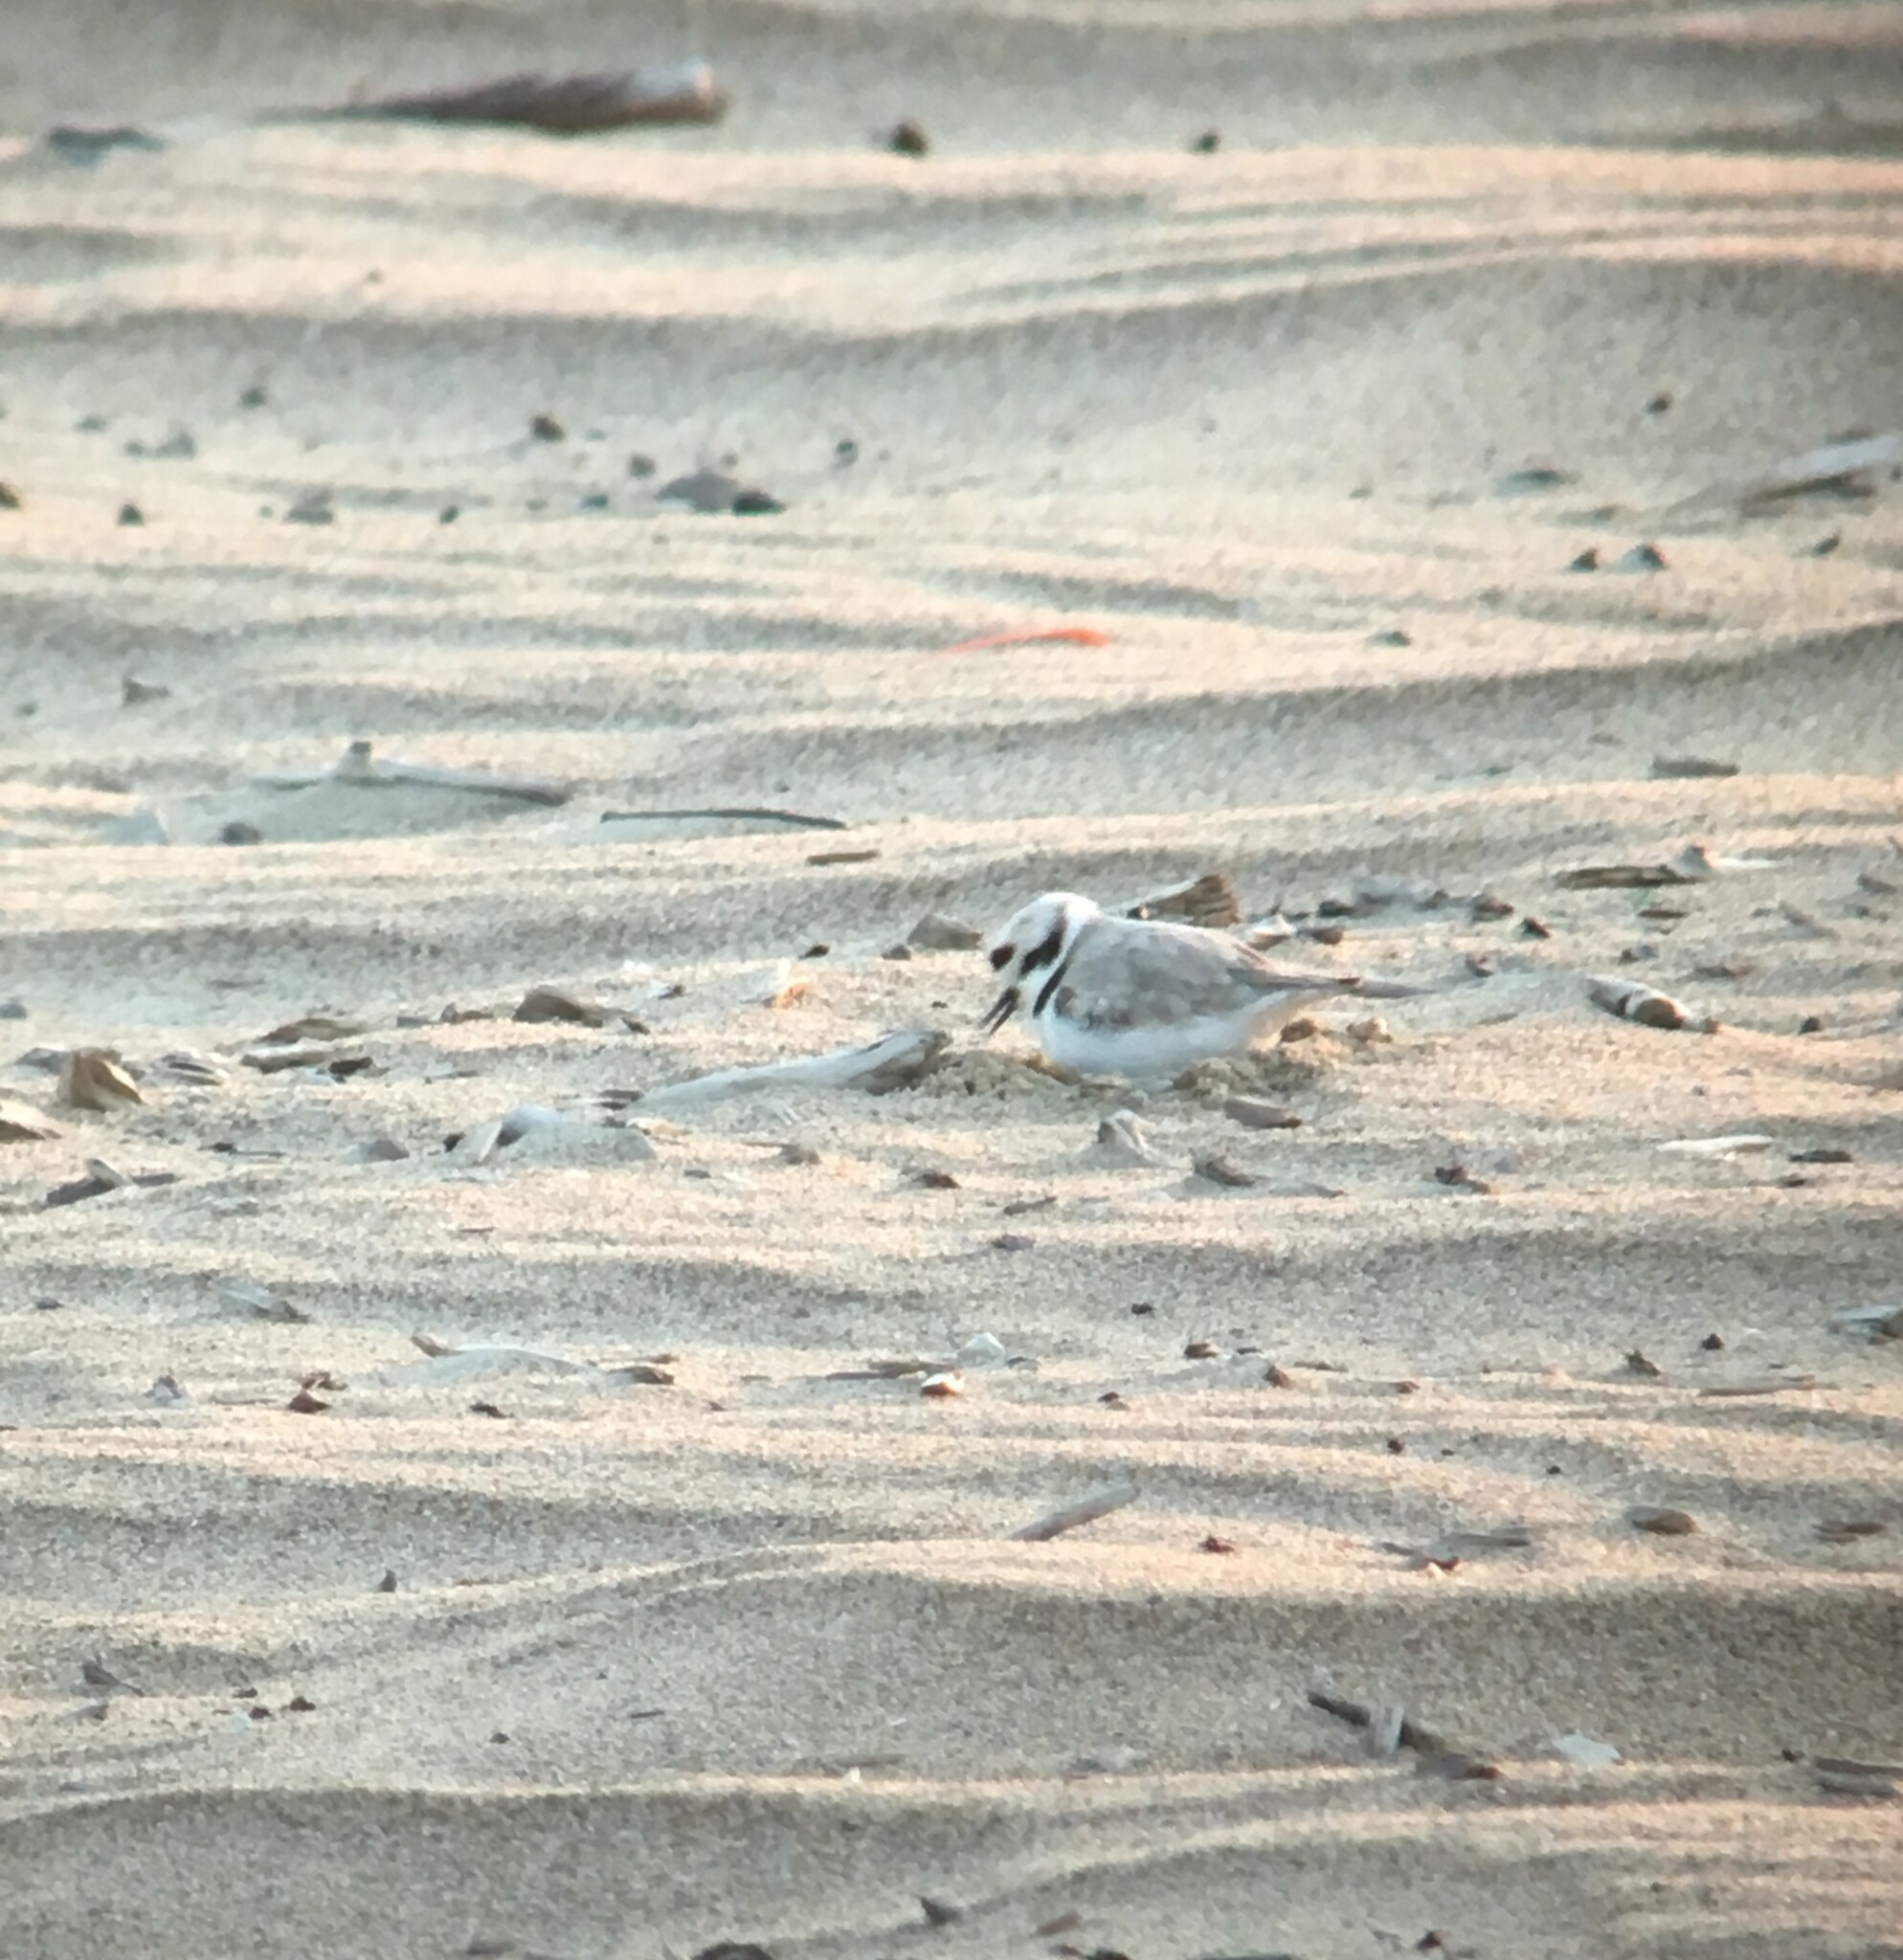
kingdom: Animalia
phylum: Chordata
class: Aves
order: Charadriiformes
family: Charadriidae
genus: Anarhynchus
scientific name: Anarhynchus
